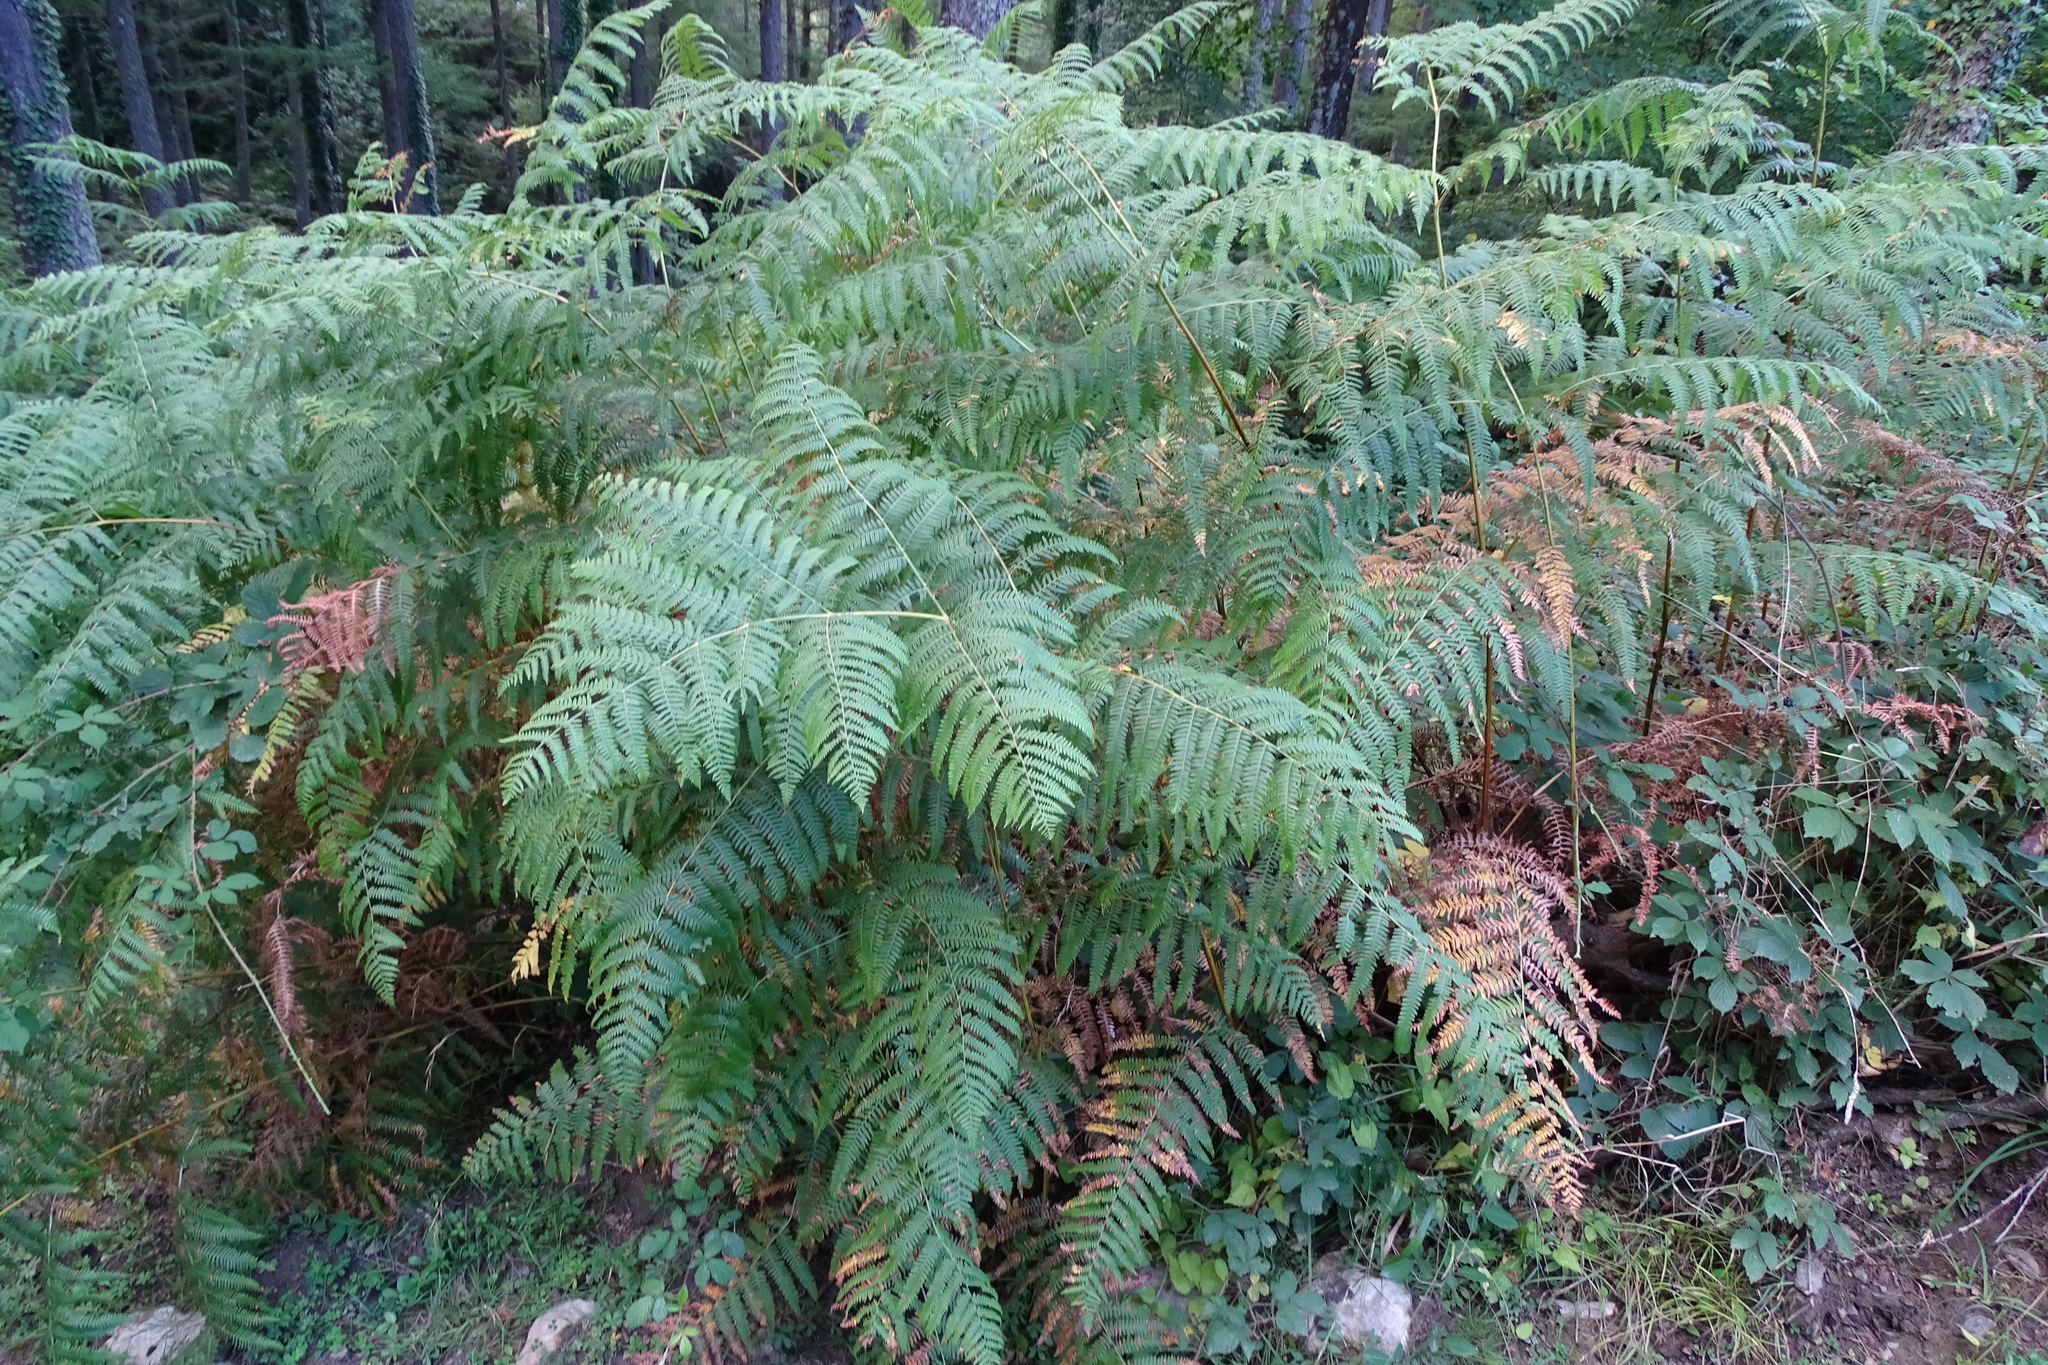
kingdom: Plantae
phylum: Tracheophyta
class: Polypodiopsida
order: Polypodiales
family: Dennstaedtiaceae
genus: Pteridium
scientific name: Pteridium aquilinum
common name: Bracken
